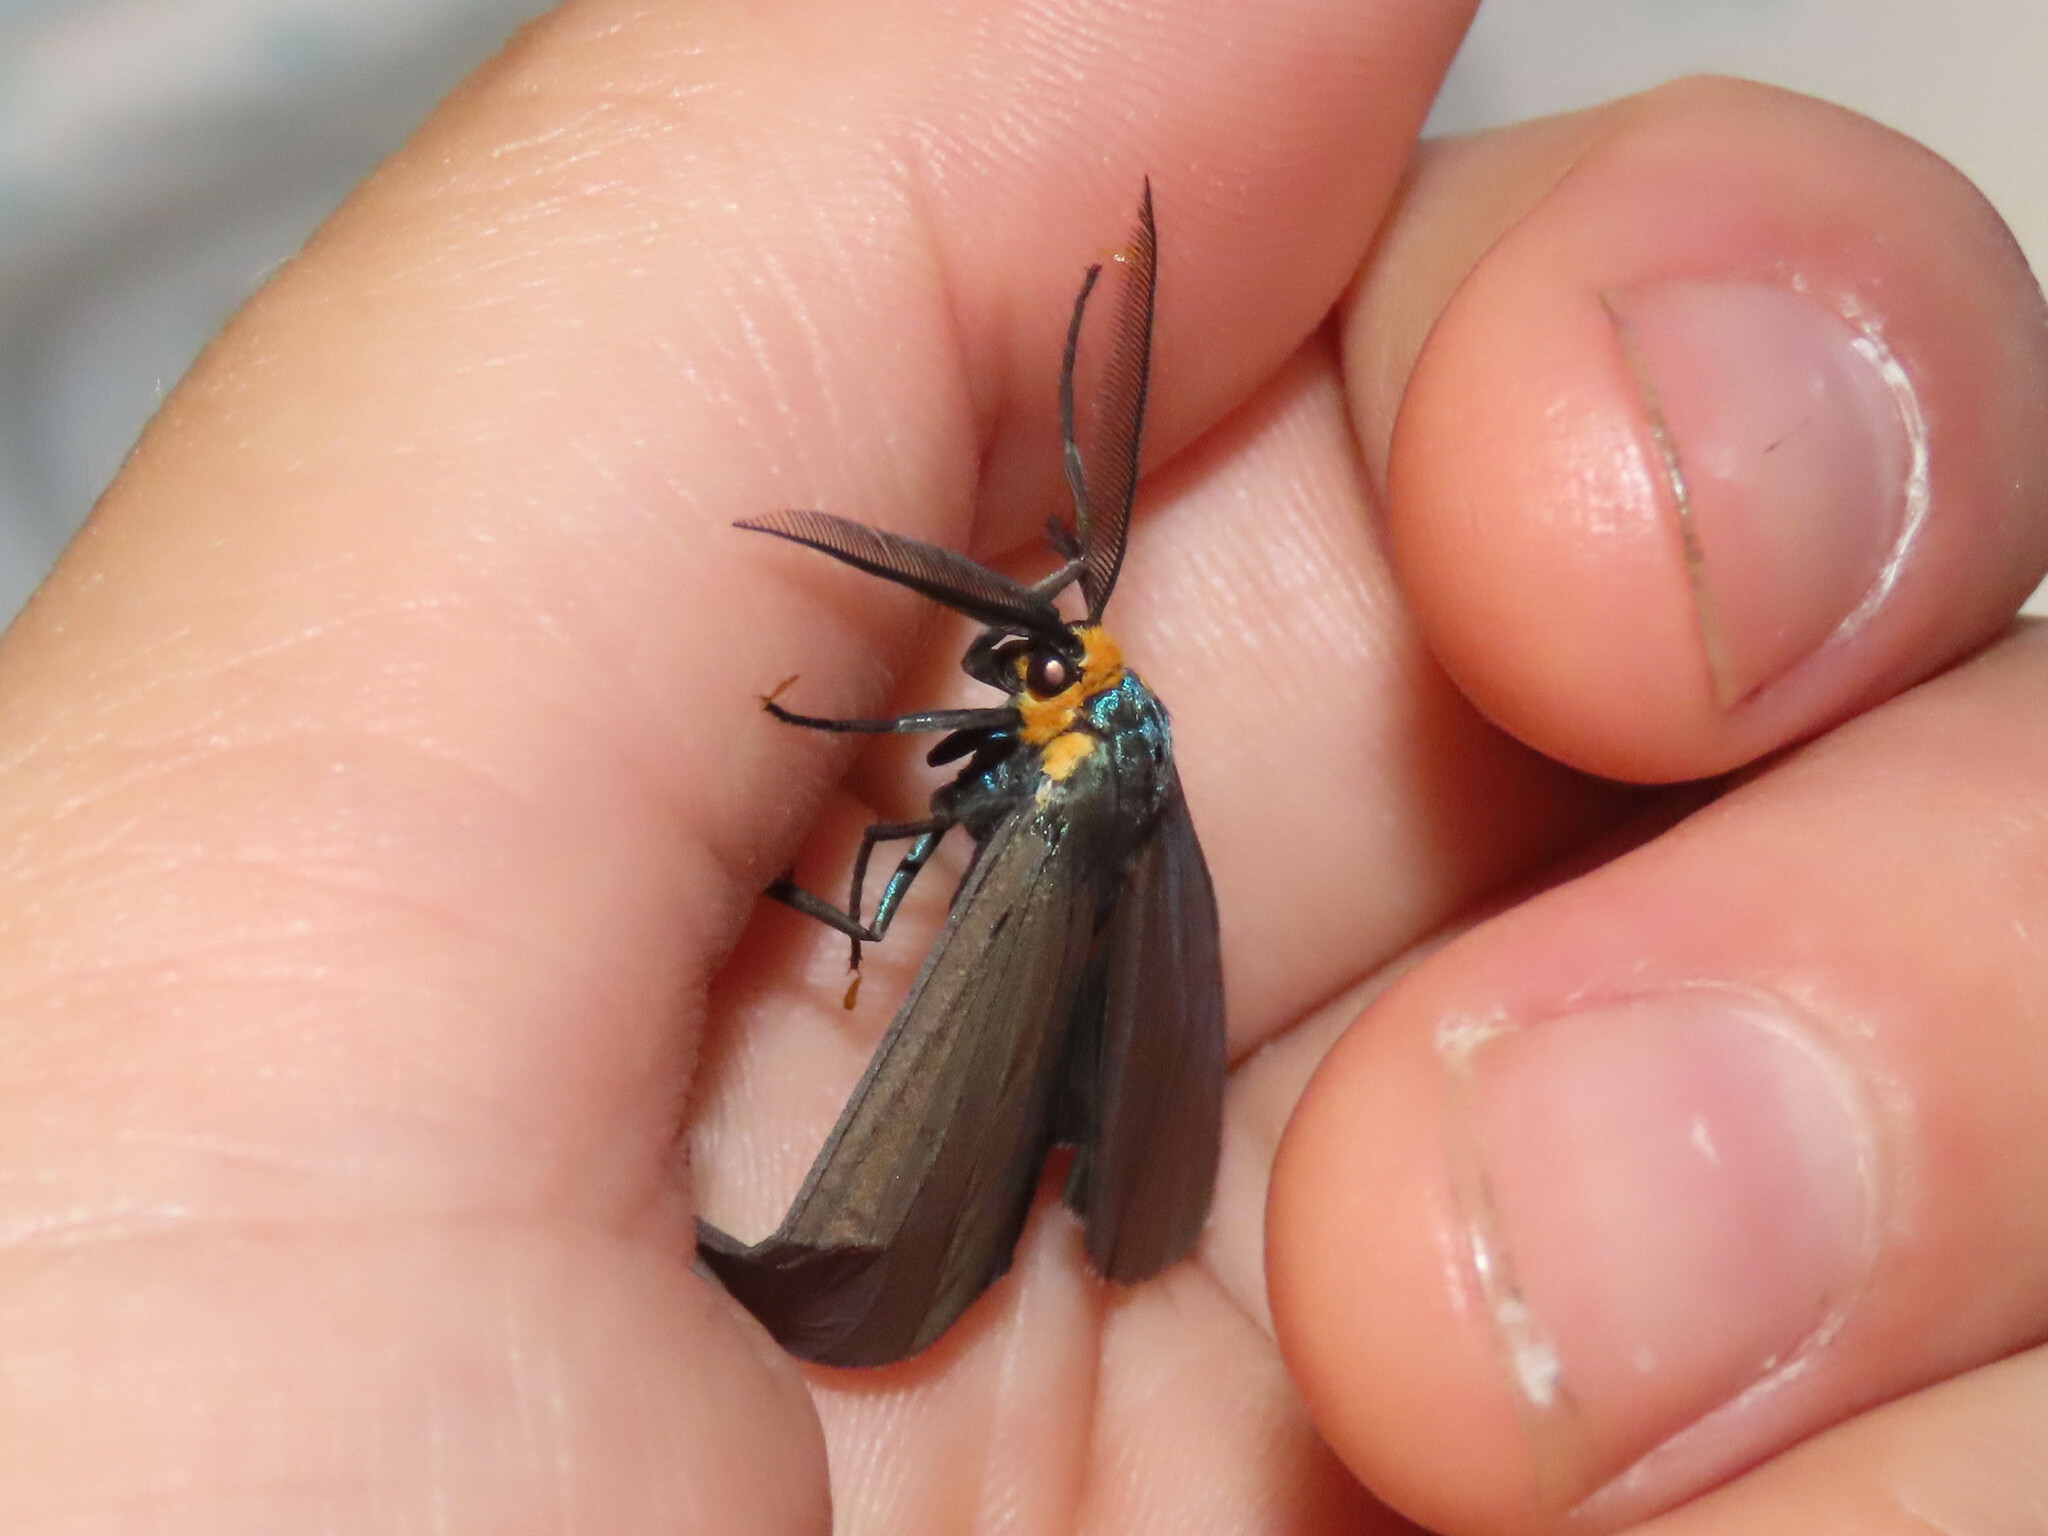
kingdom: Animalia
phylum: Arthropoda
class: Insecta
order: Lepidoptera
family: Erebidae
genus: Ctenucha
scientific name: Ctenucha virginica
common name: Virginia ctenucha moth
